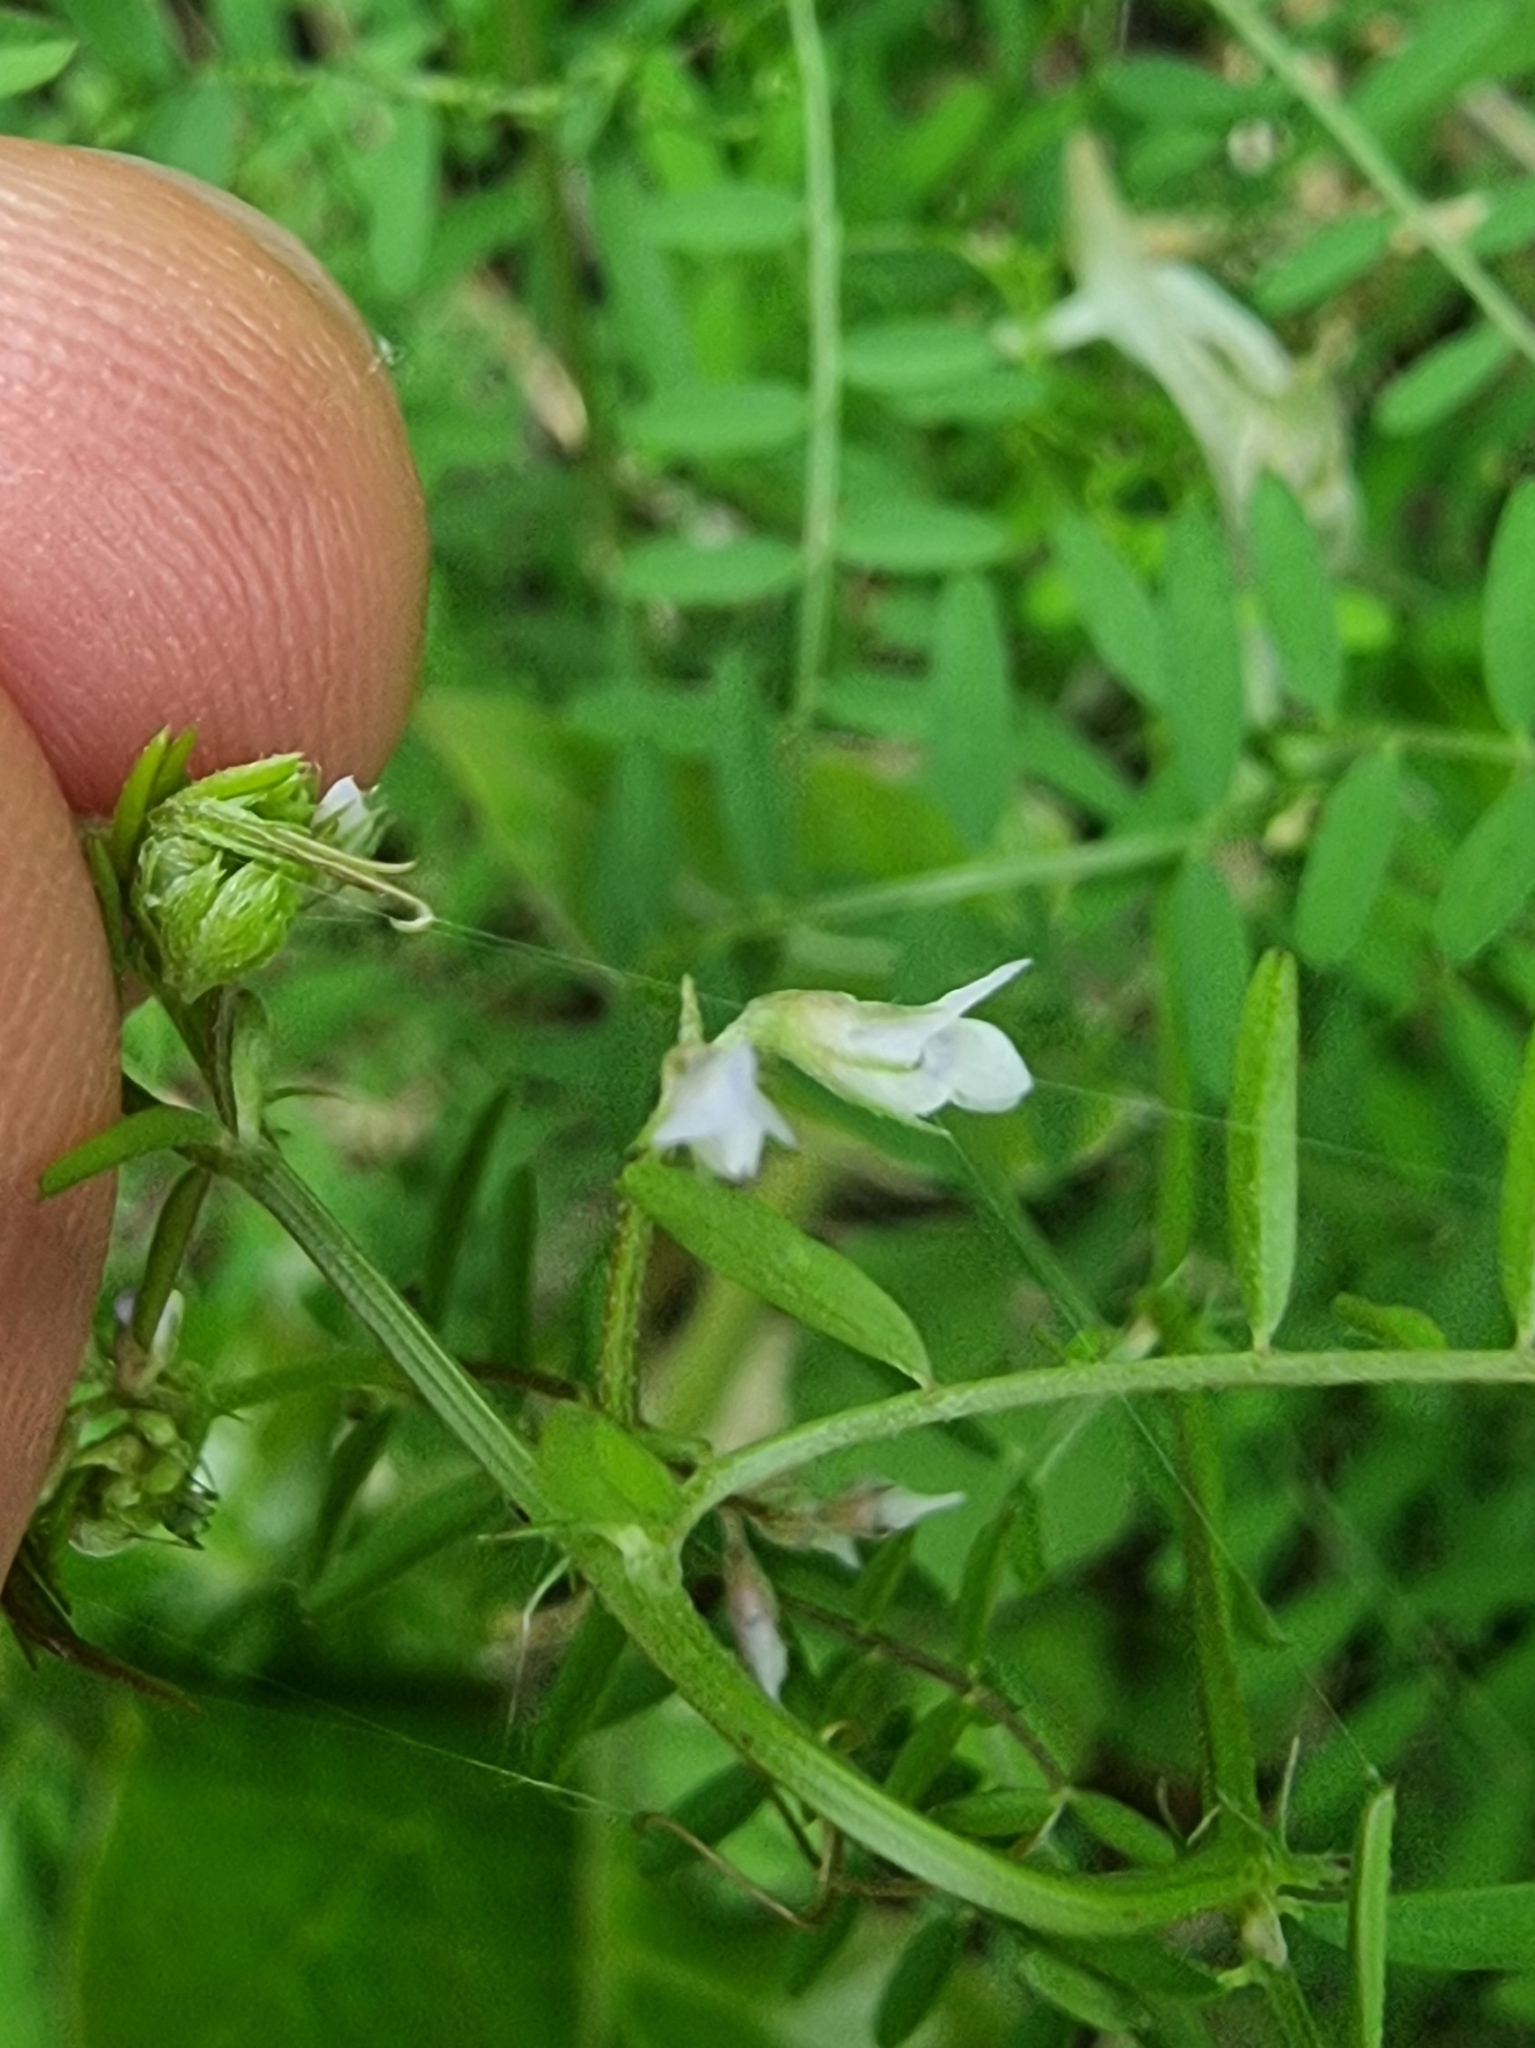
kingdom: Plantae
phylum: Tracheophyta
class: Magnoliopsida
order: Fabales
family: Fabaceae
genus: Vicia
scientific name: Vicia hirsuta
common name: Tiny vetch
